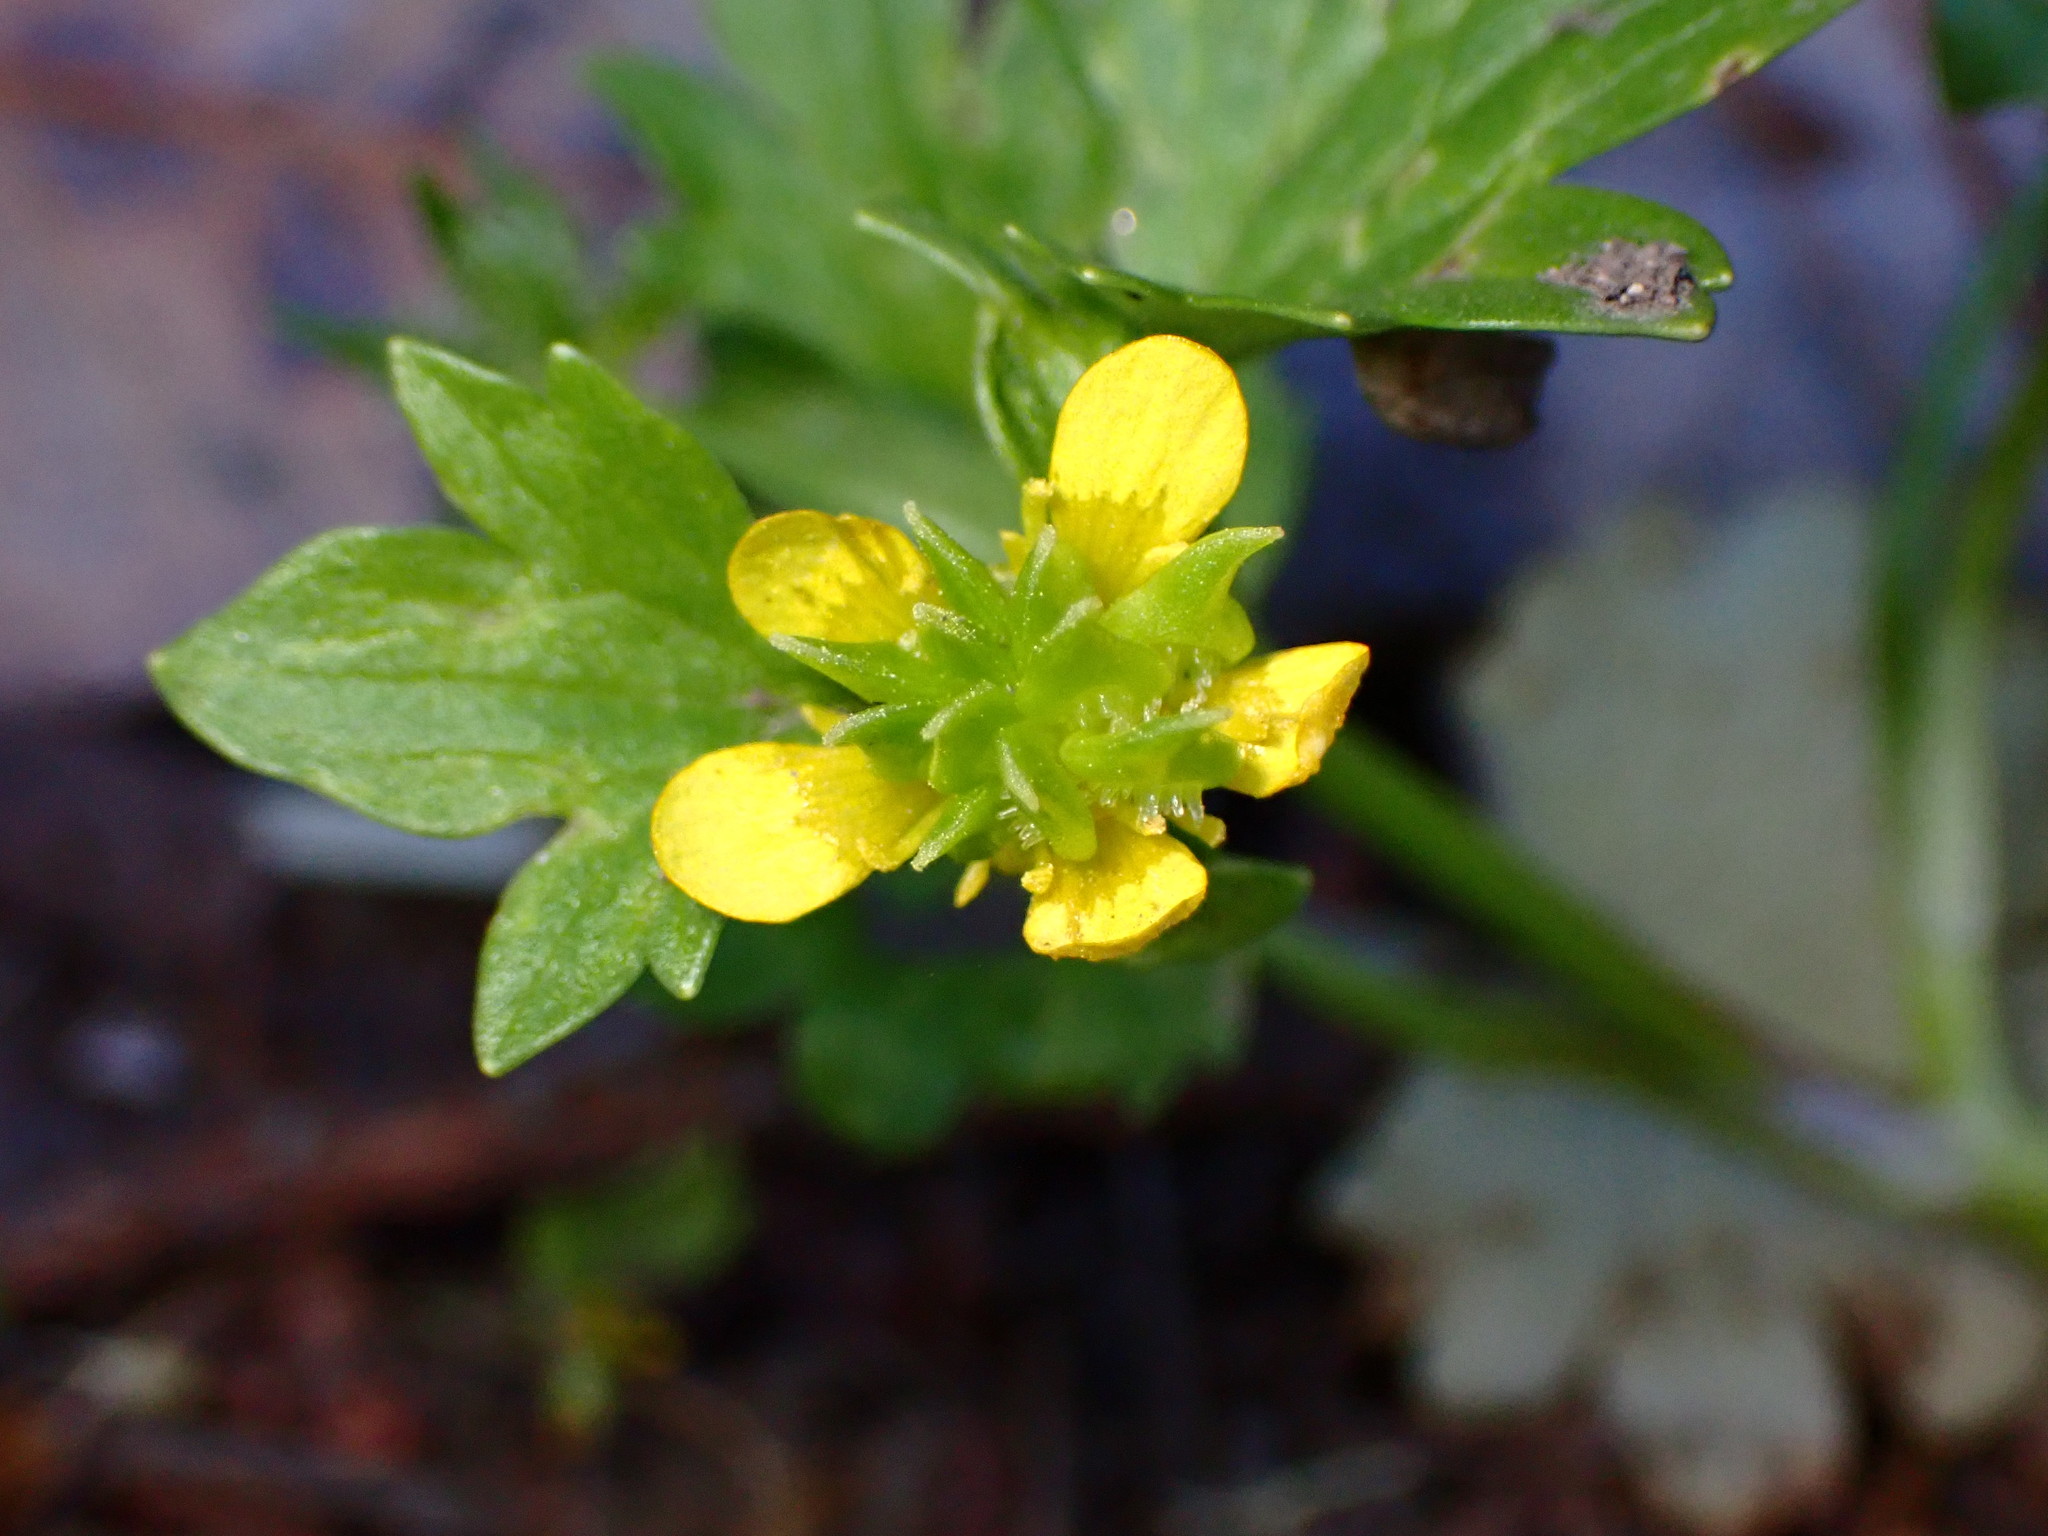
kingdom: Plantae
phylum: Tracheophyta
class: Magnoliopsida
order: Ranunculales
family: Ranunculaceae
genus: Ranunculus
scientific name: Ranunculus muricatus
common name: Rough-fruited buttercup
